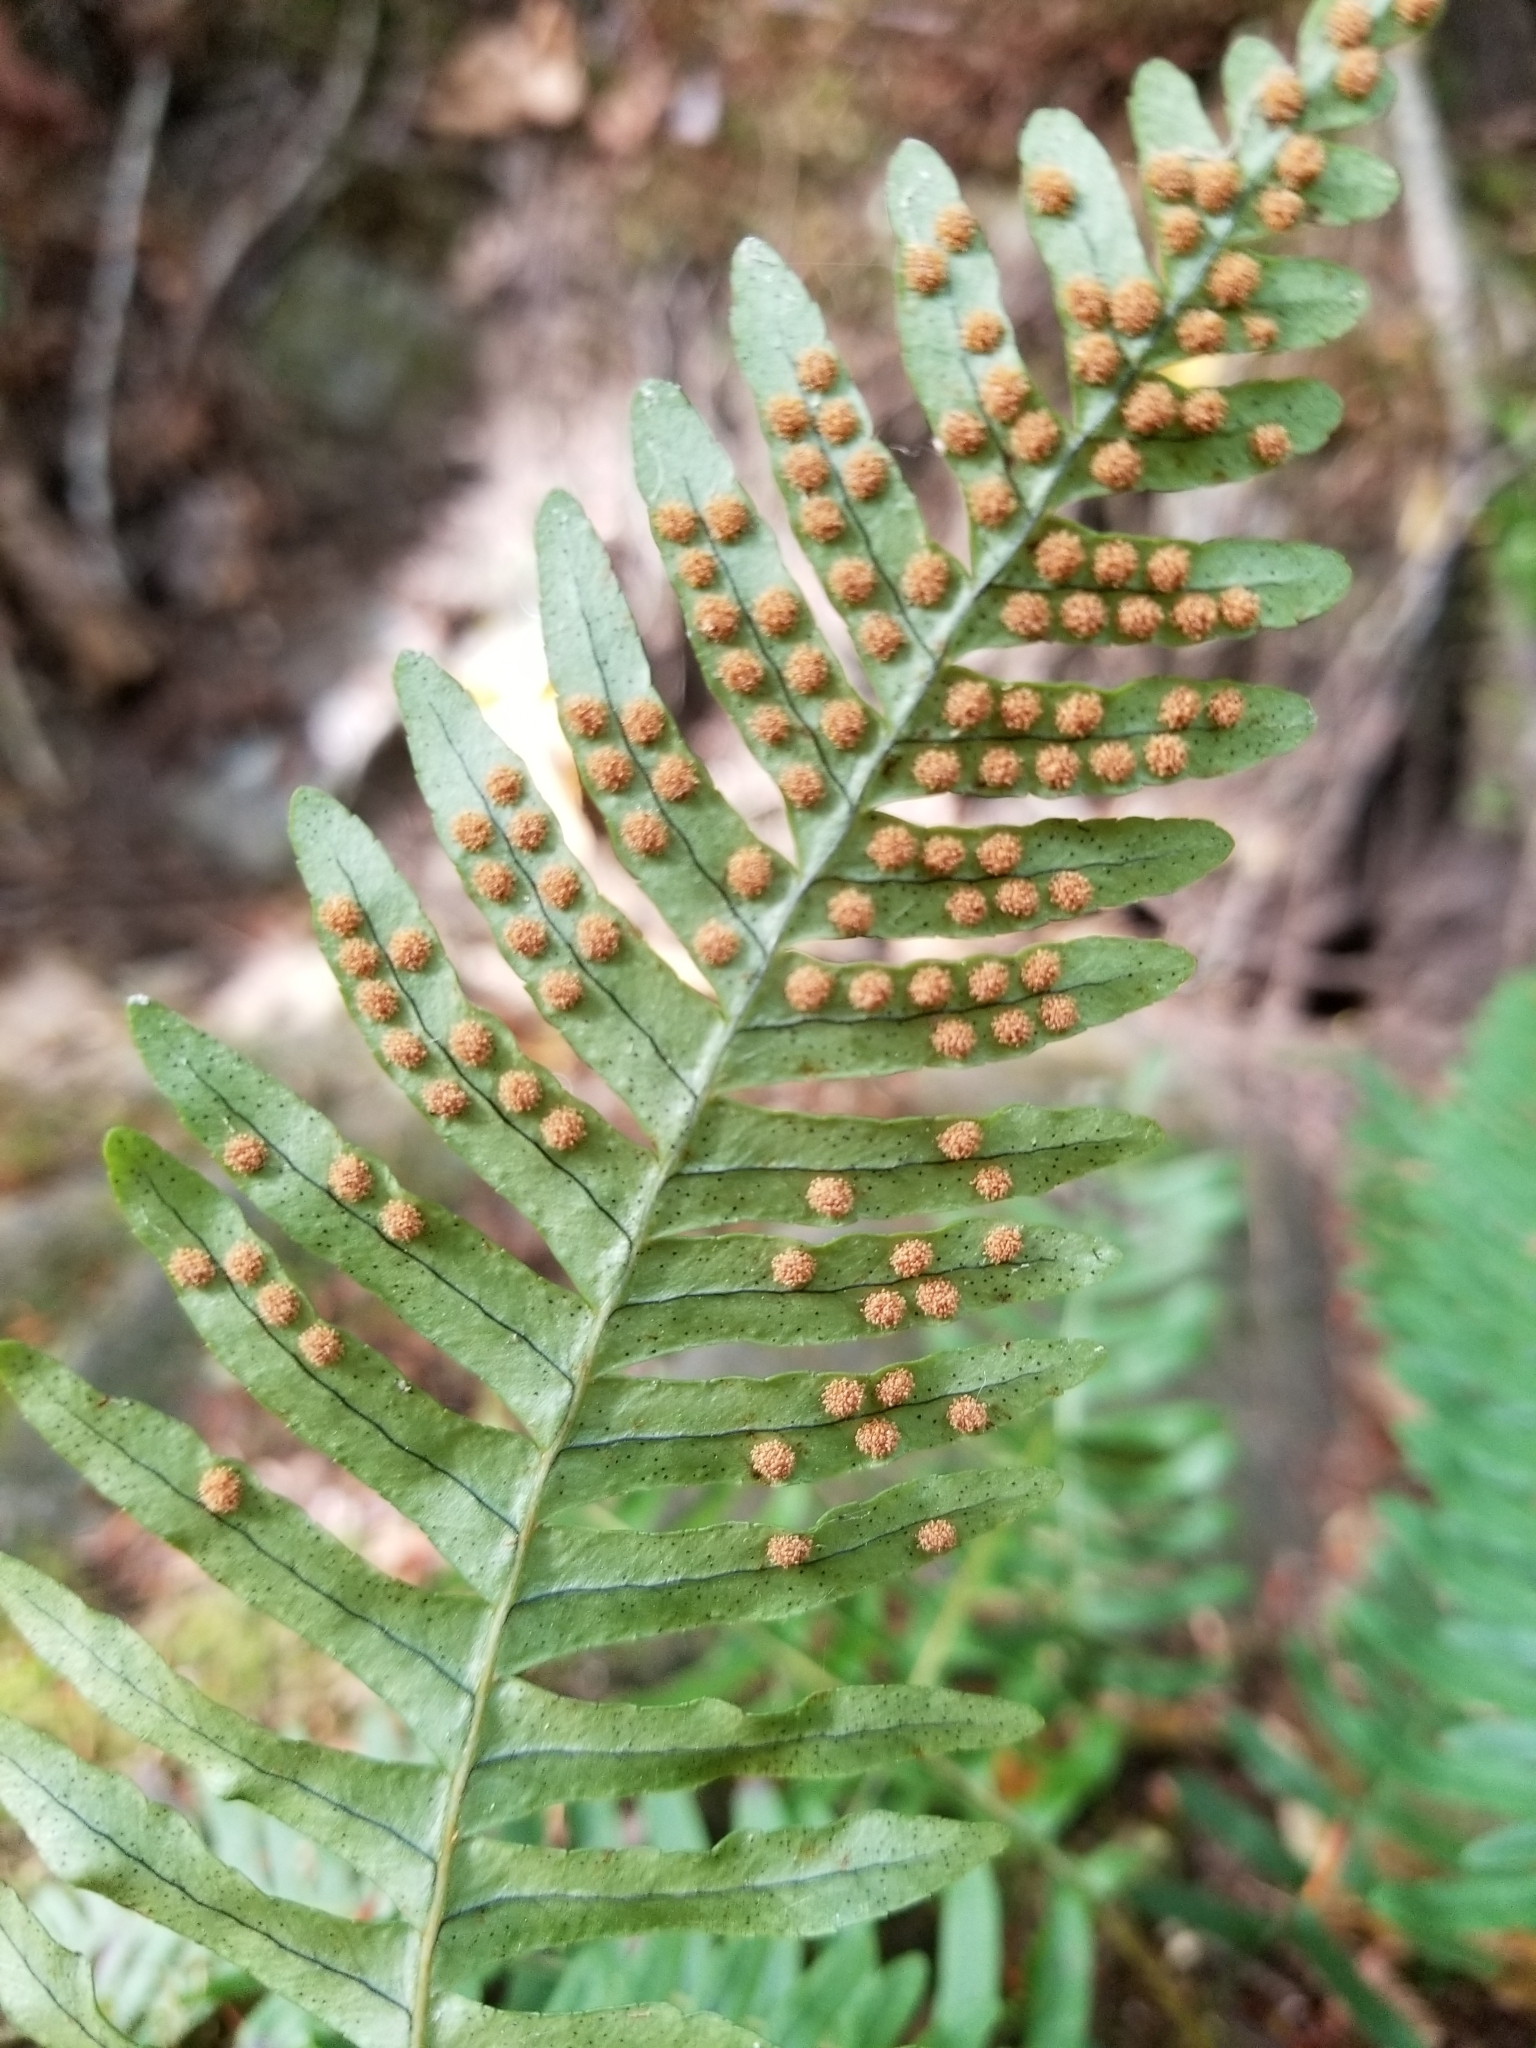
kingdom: Plantae
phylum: Tracheophyta
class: Polypodiopsida
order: Polypodiales
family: Polypodiaceae
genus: Polypodium
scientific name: Polypodium virginianum
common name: American wall fern
